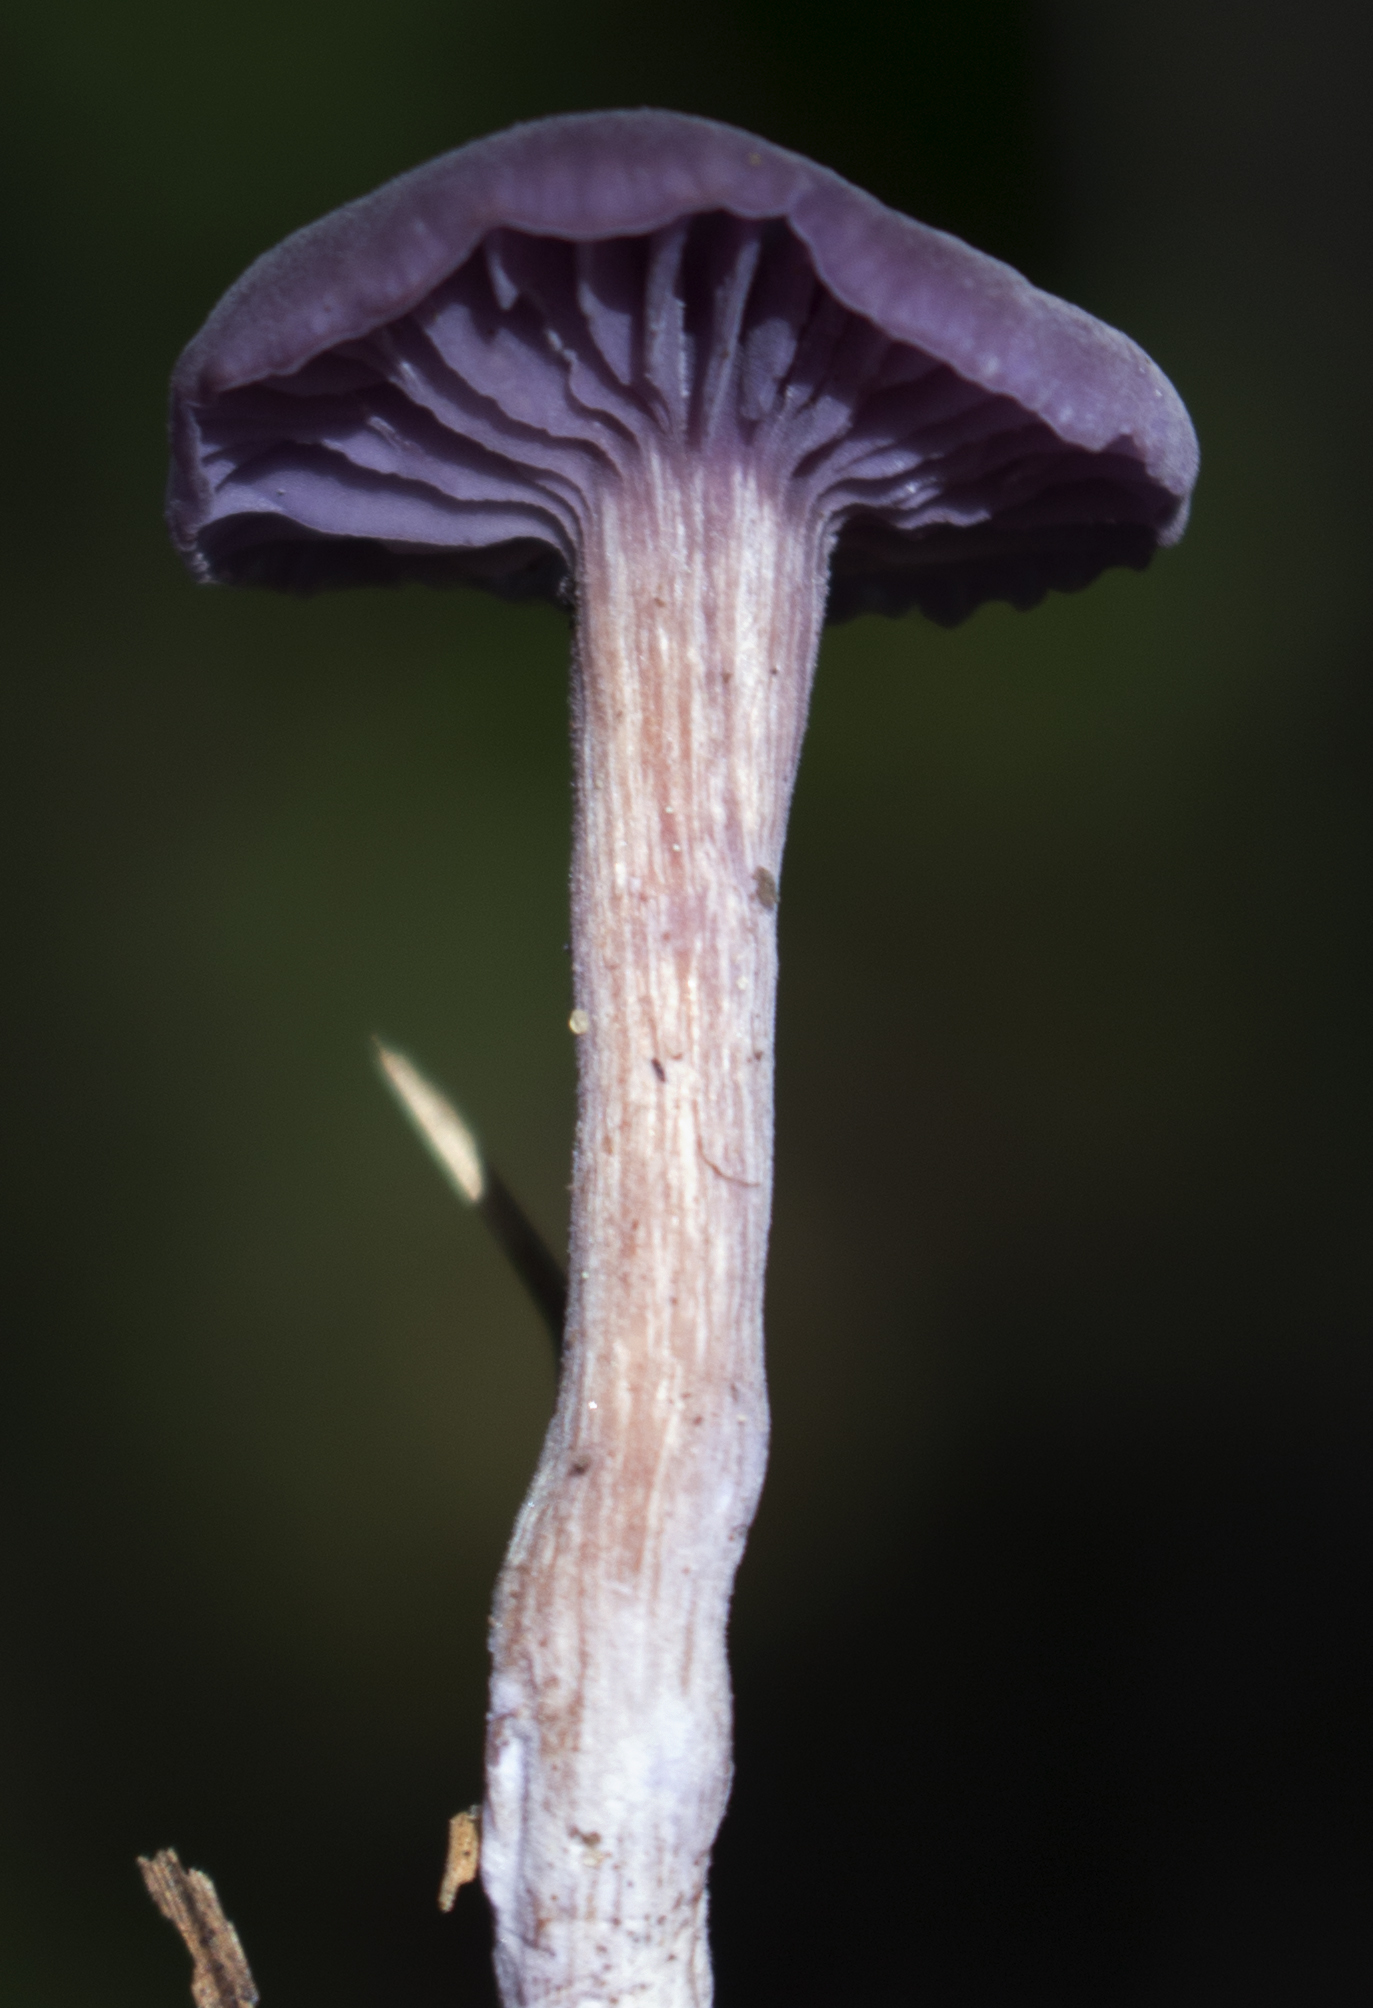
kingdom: Fungi
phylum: Basidiomycota
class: Agaricomycetes
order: Agaricales
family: Hydnangiaceae
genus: Laccaria
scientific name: Laccaria amethystina
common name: Amethyst deceiver
